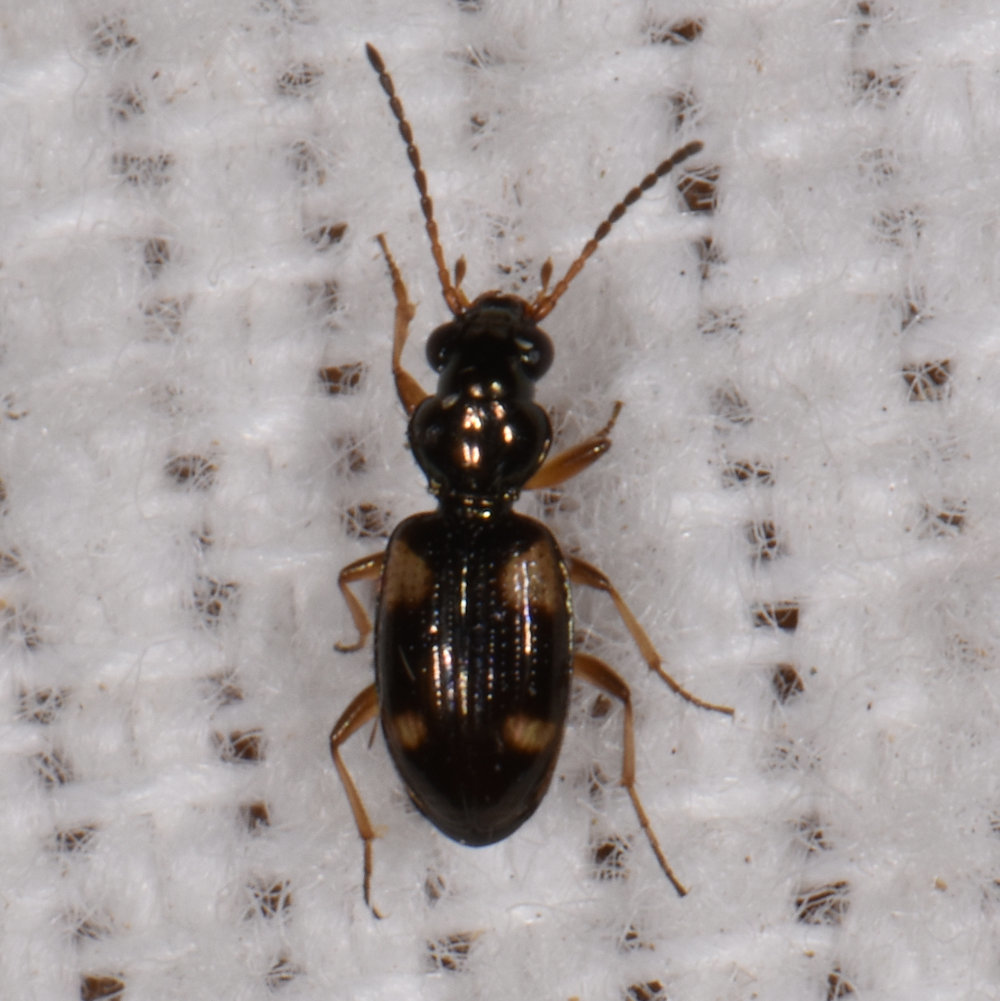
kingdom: Animalia
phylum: Arthropoda
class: Insecta
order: Coleoptera
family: Carabidae
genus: Bembidion
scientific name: Bembidion quadrimaculatum
